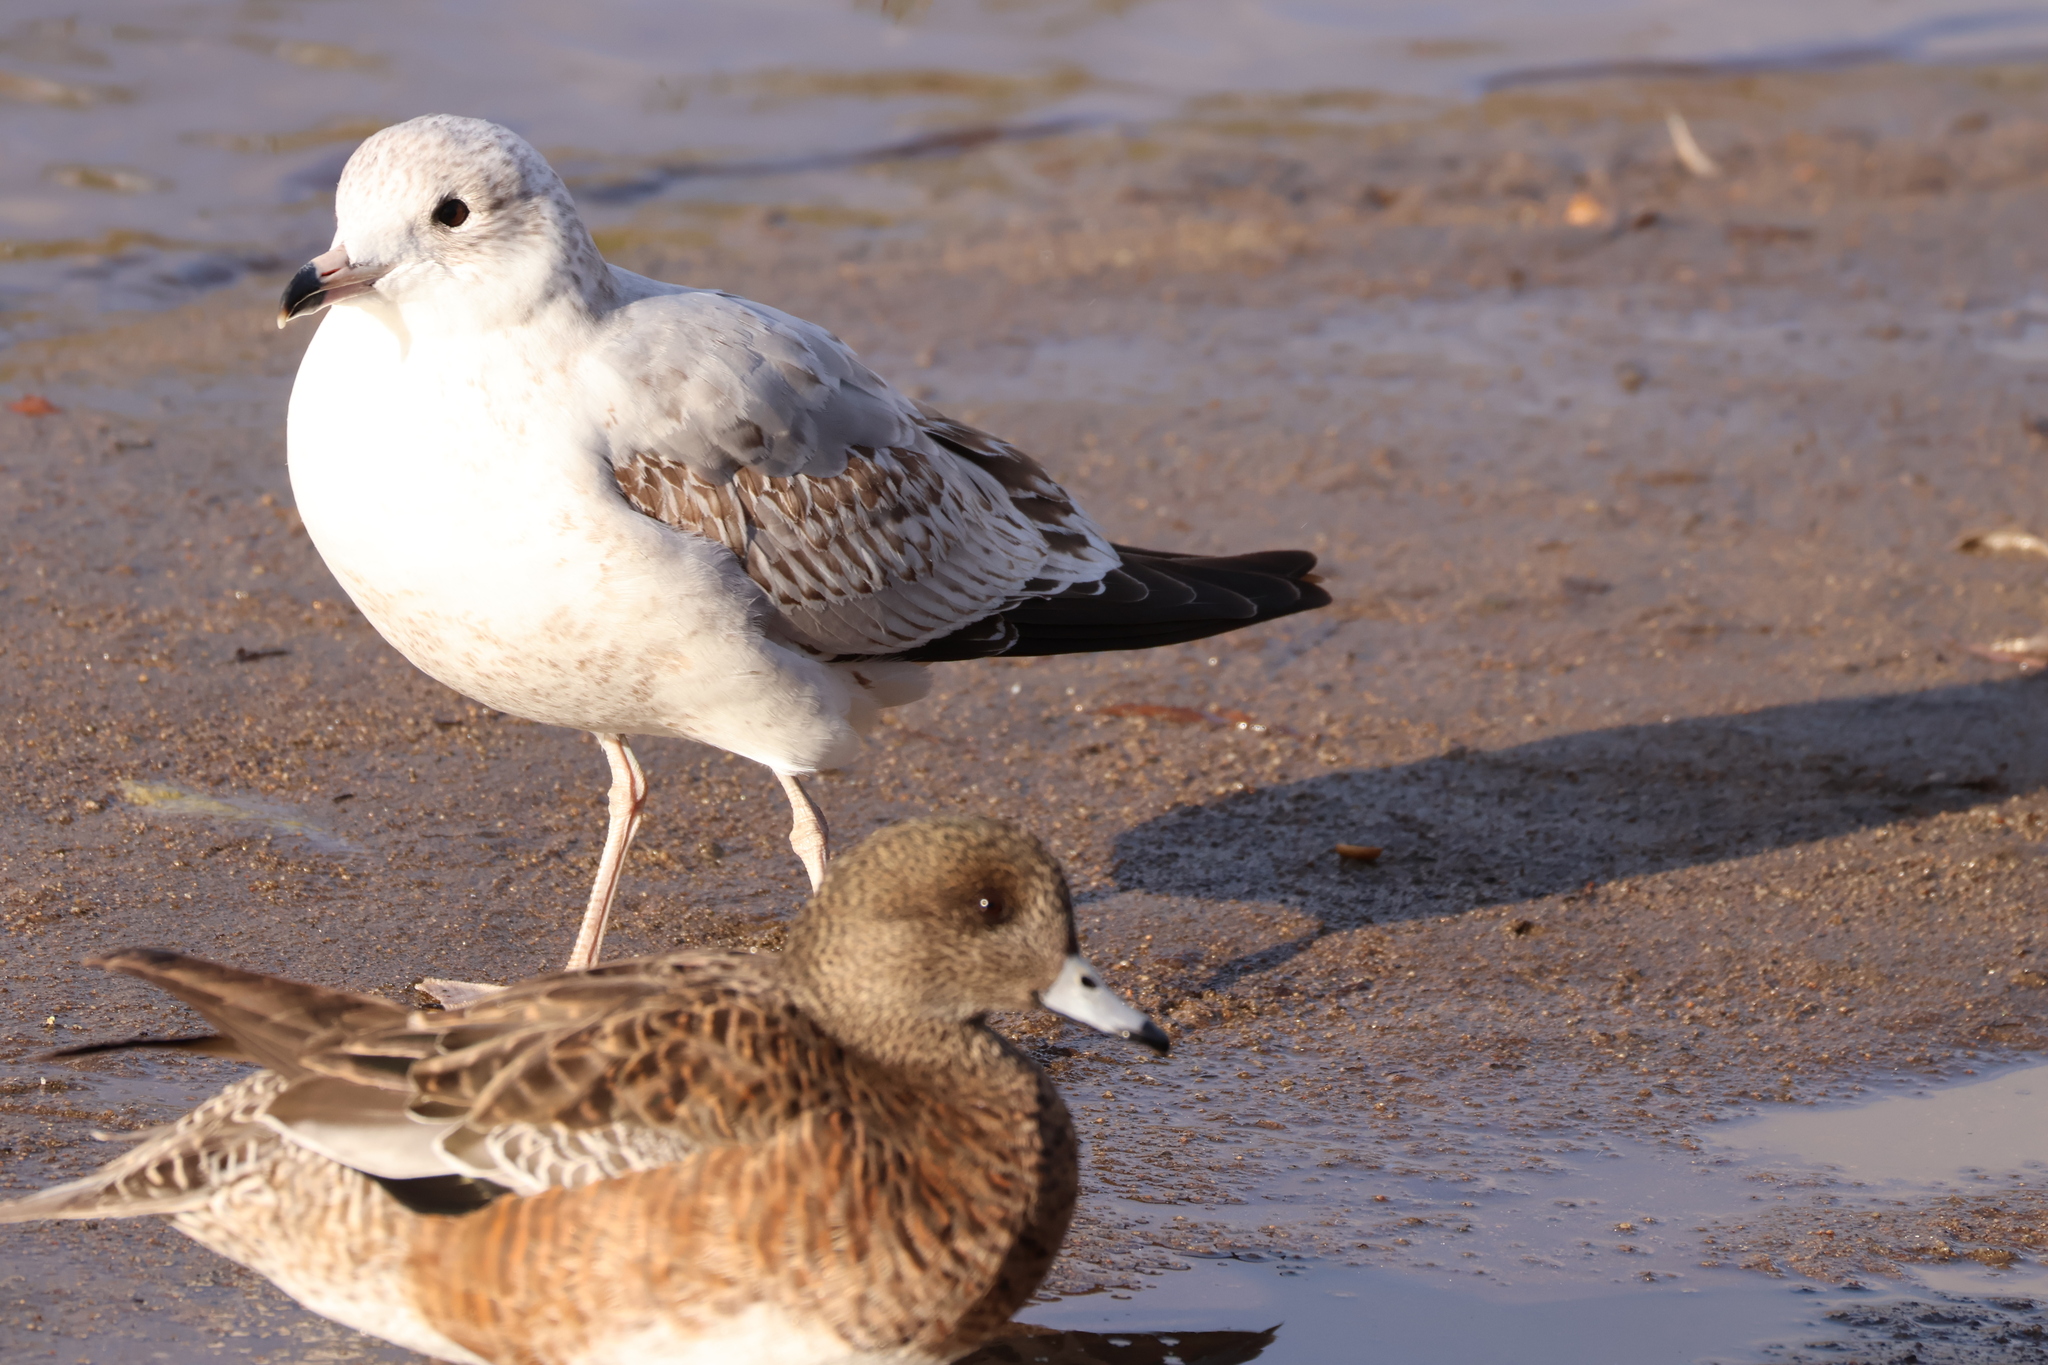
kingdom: Animalia
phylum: Chordata
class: Aves
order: Charadriiformes
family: Laridae
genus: Larus
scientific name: Larus delawarensis
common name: Ring-billed gull
